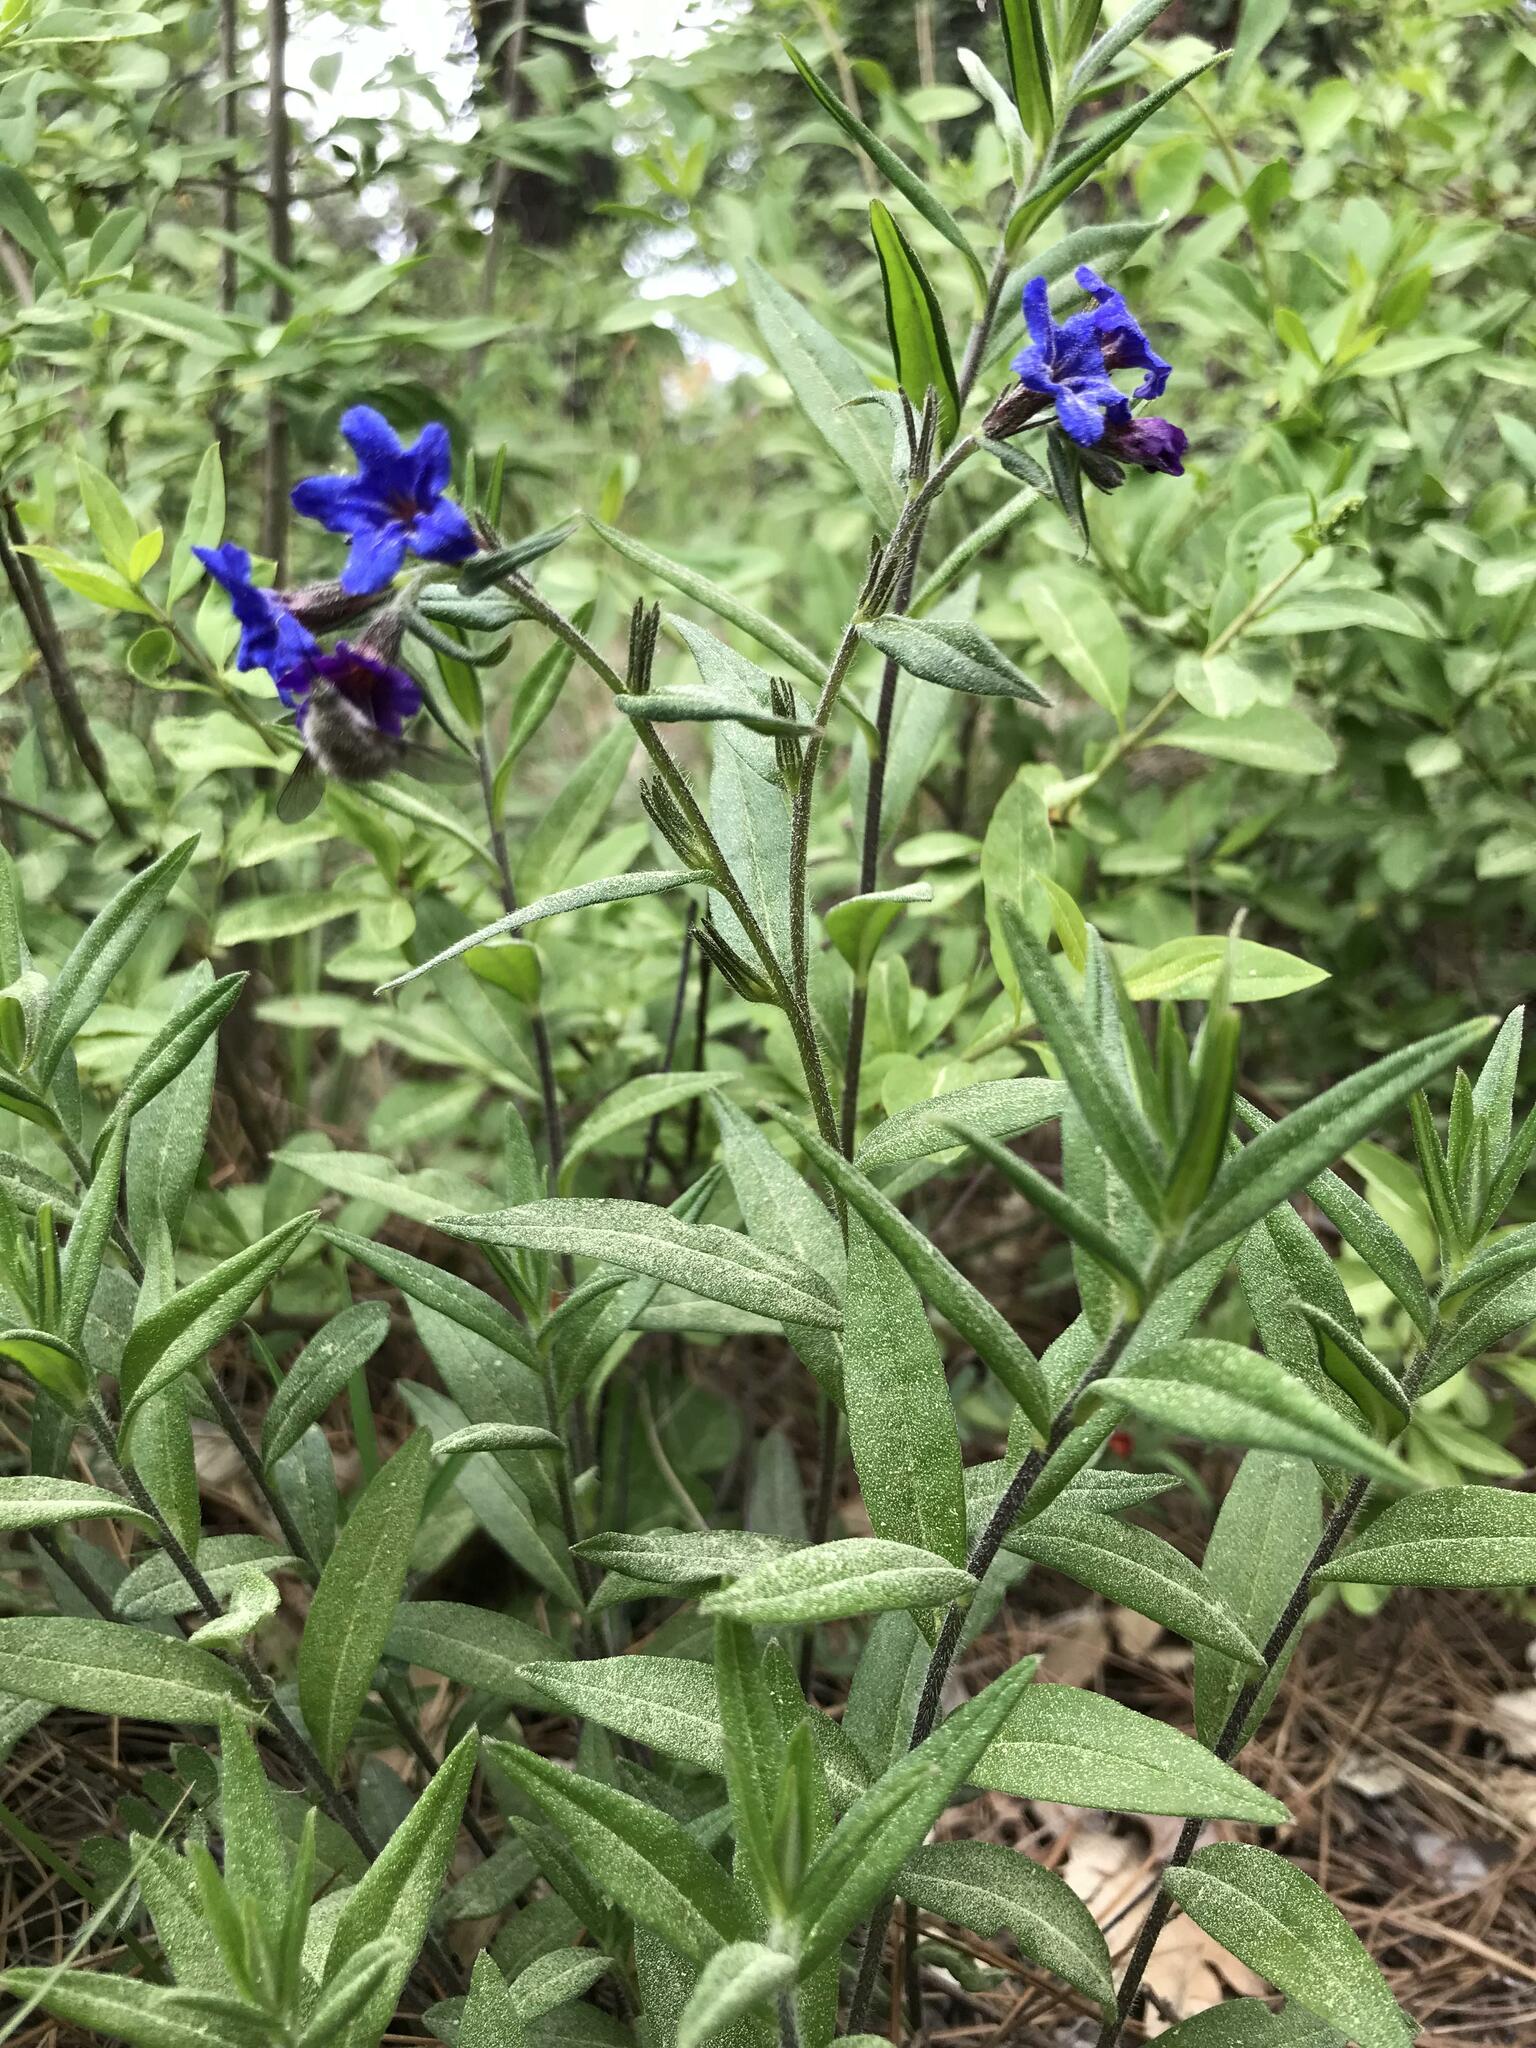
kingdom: Plantae
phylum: Tracheophyta
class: Magnoliopsida
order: Boraginales
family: Boraginaceae
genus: Aegonychon
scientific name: Aegonychon purpurocaeruleum
